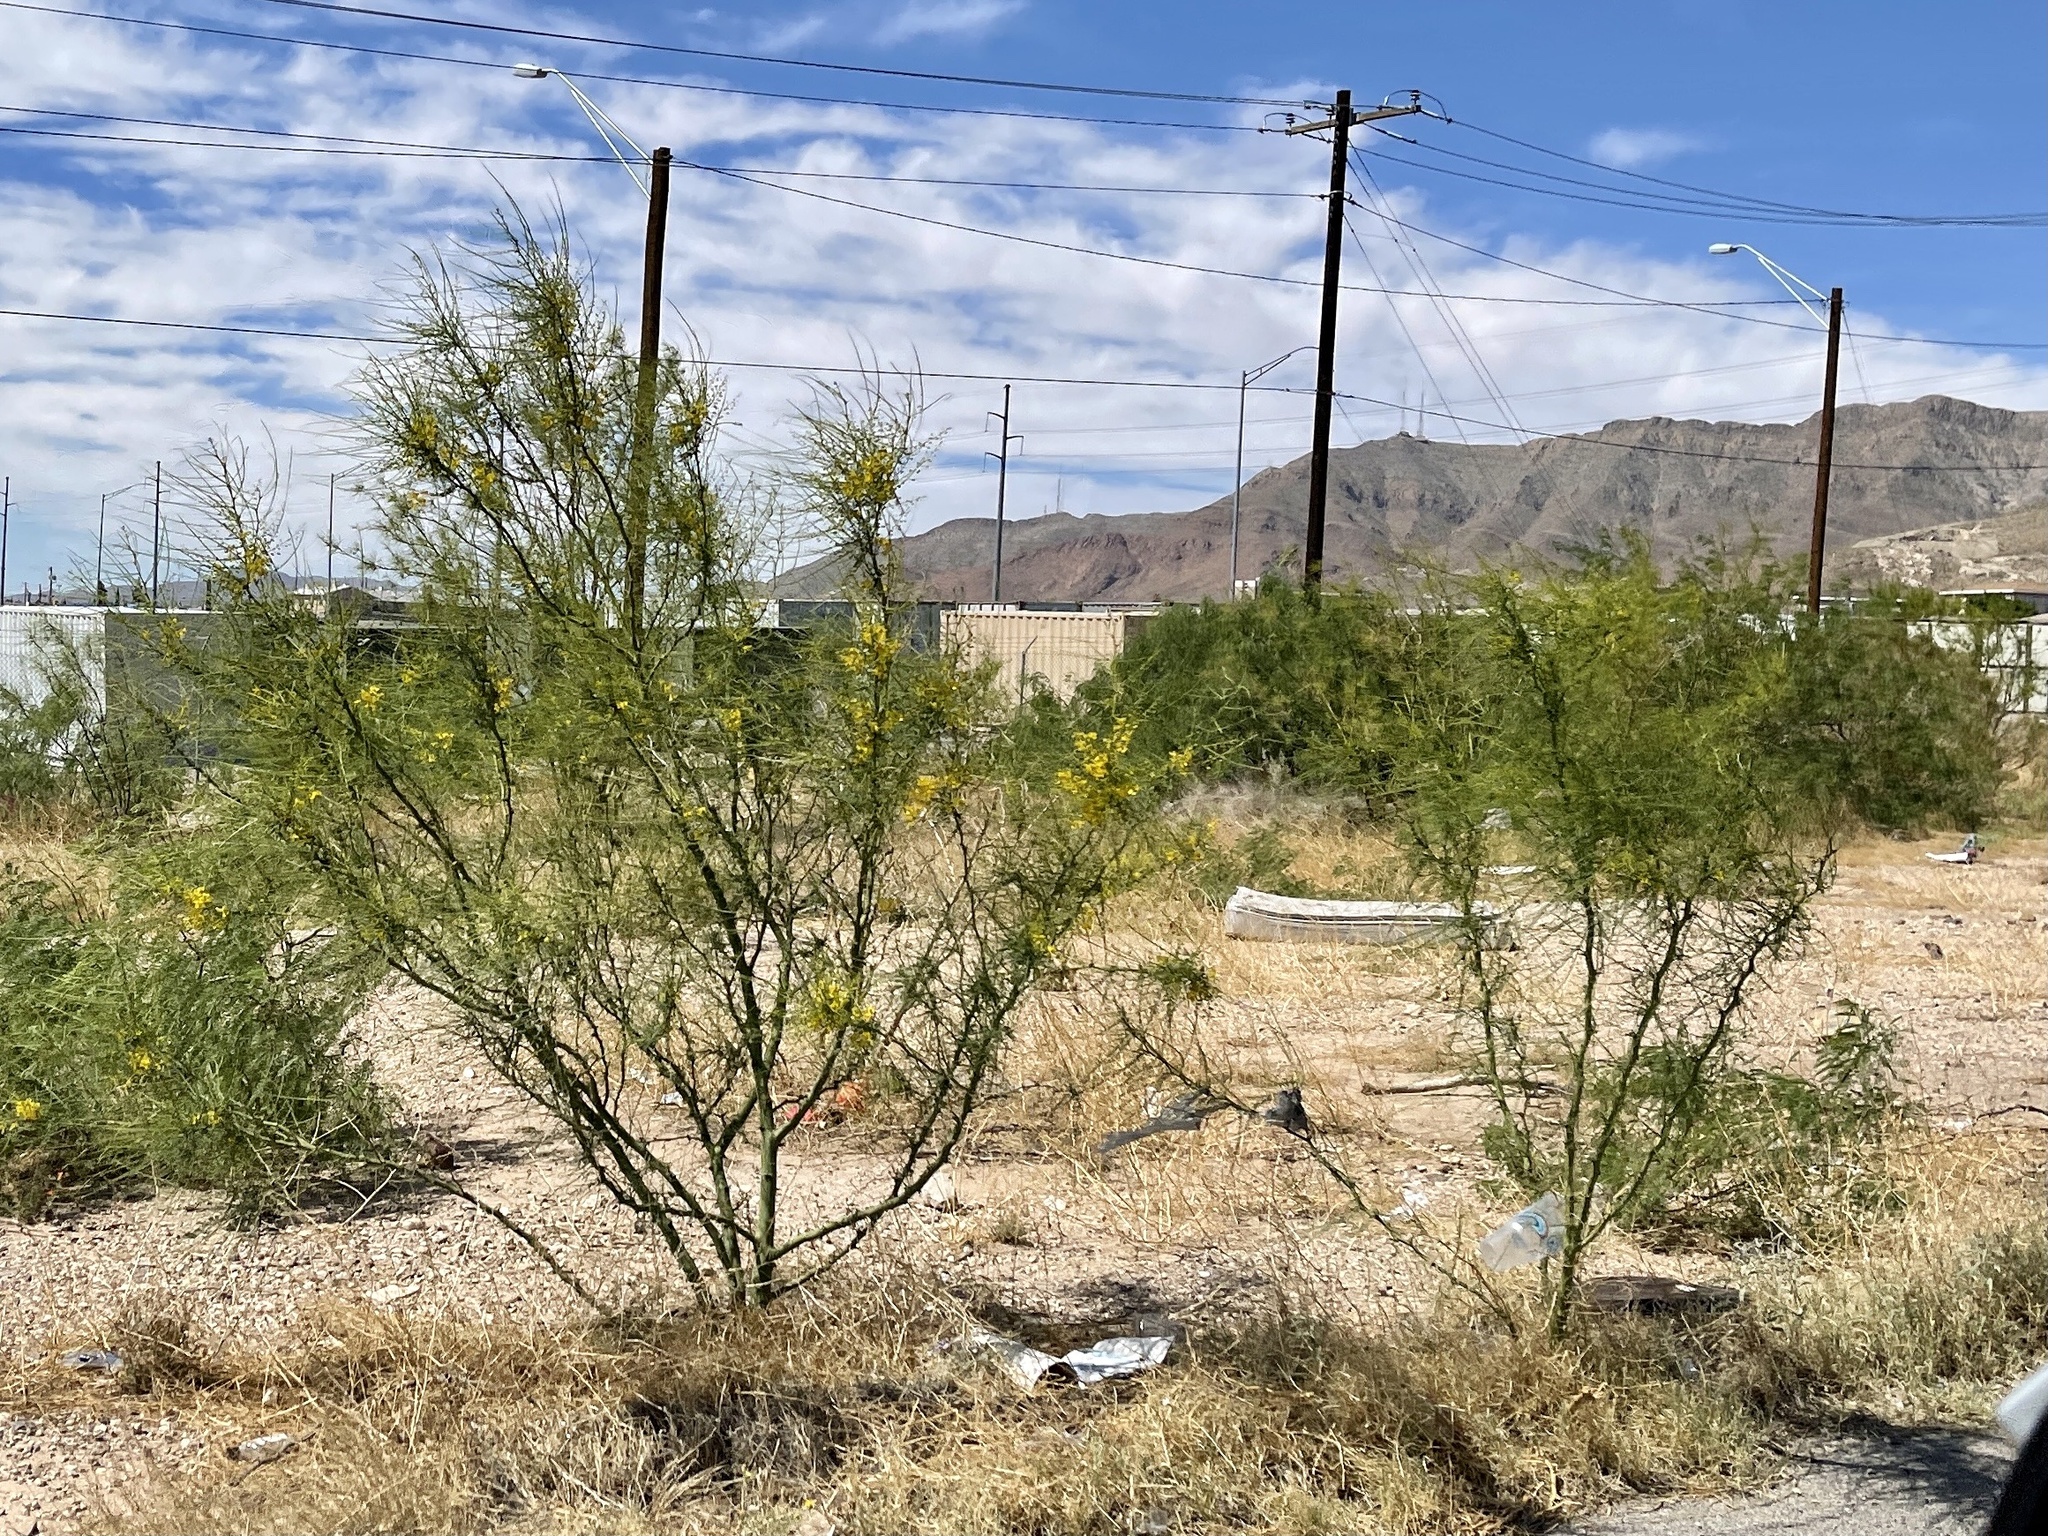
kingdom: Plantae
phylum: Tracheophyta
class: Magnoliopsida
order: Fabales
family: Fabaceae
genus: Parkinsonia
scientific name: Parkinsonia aculeata
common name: Jerusalem thorn
